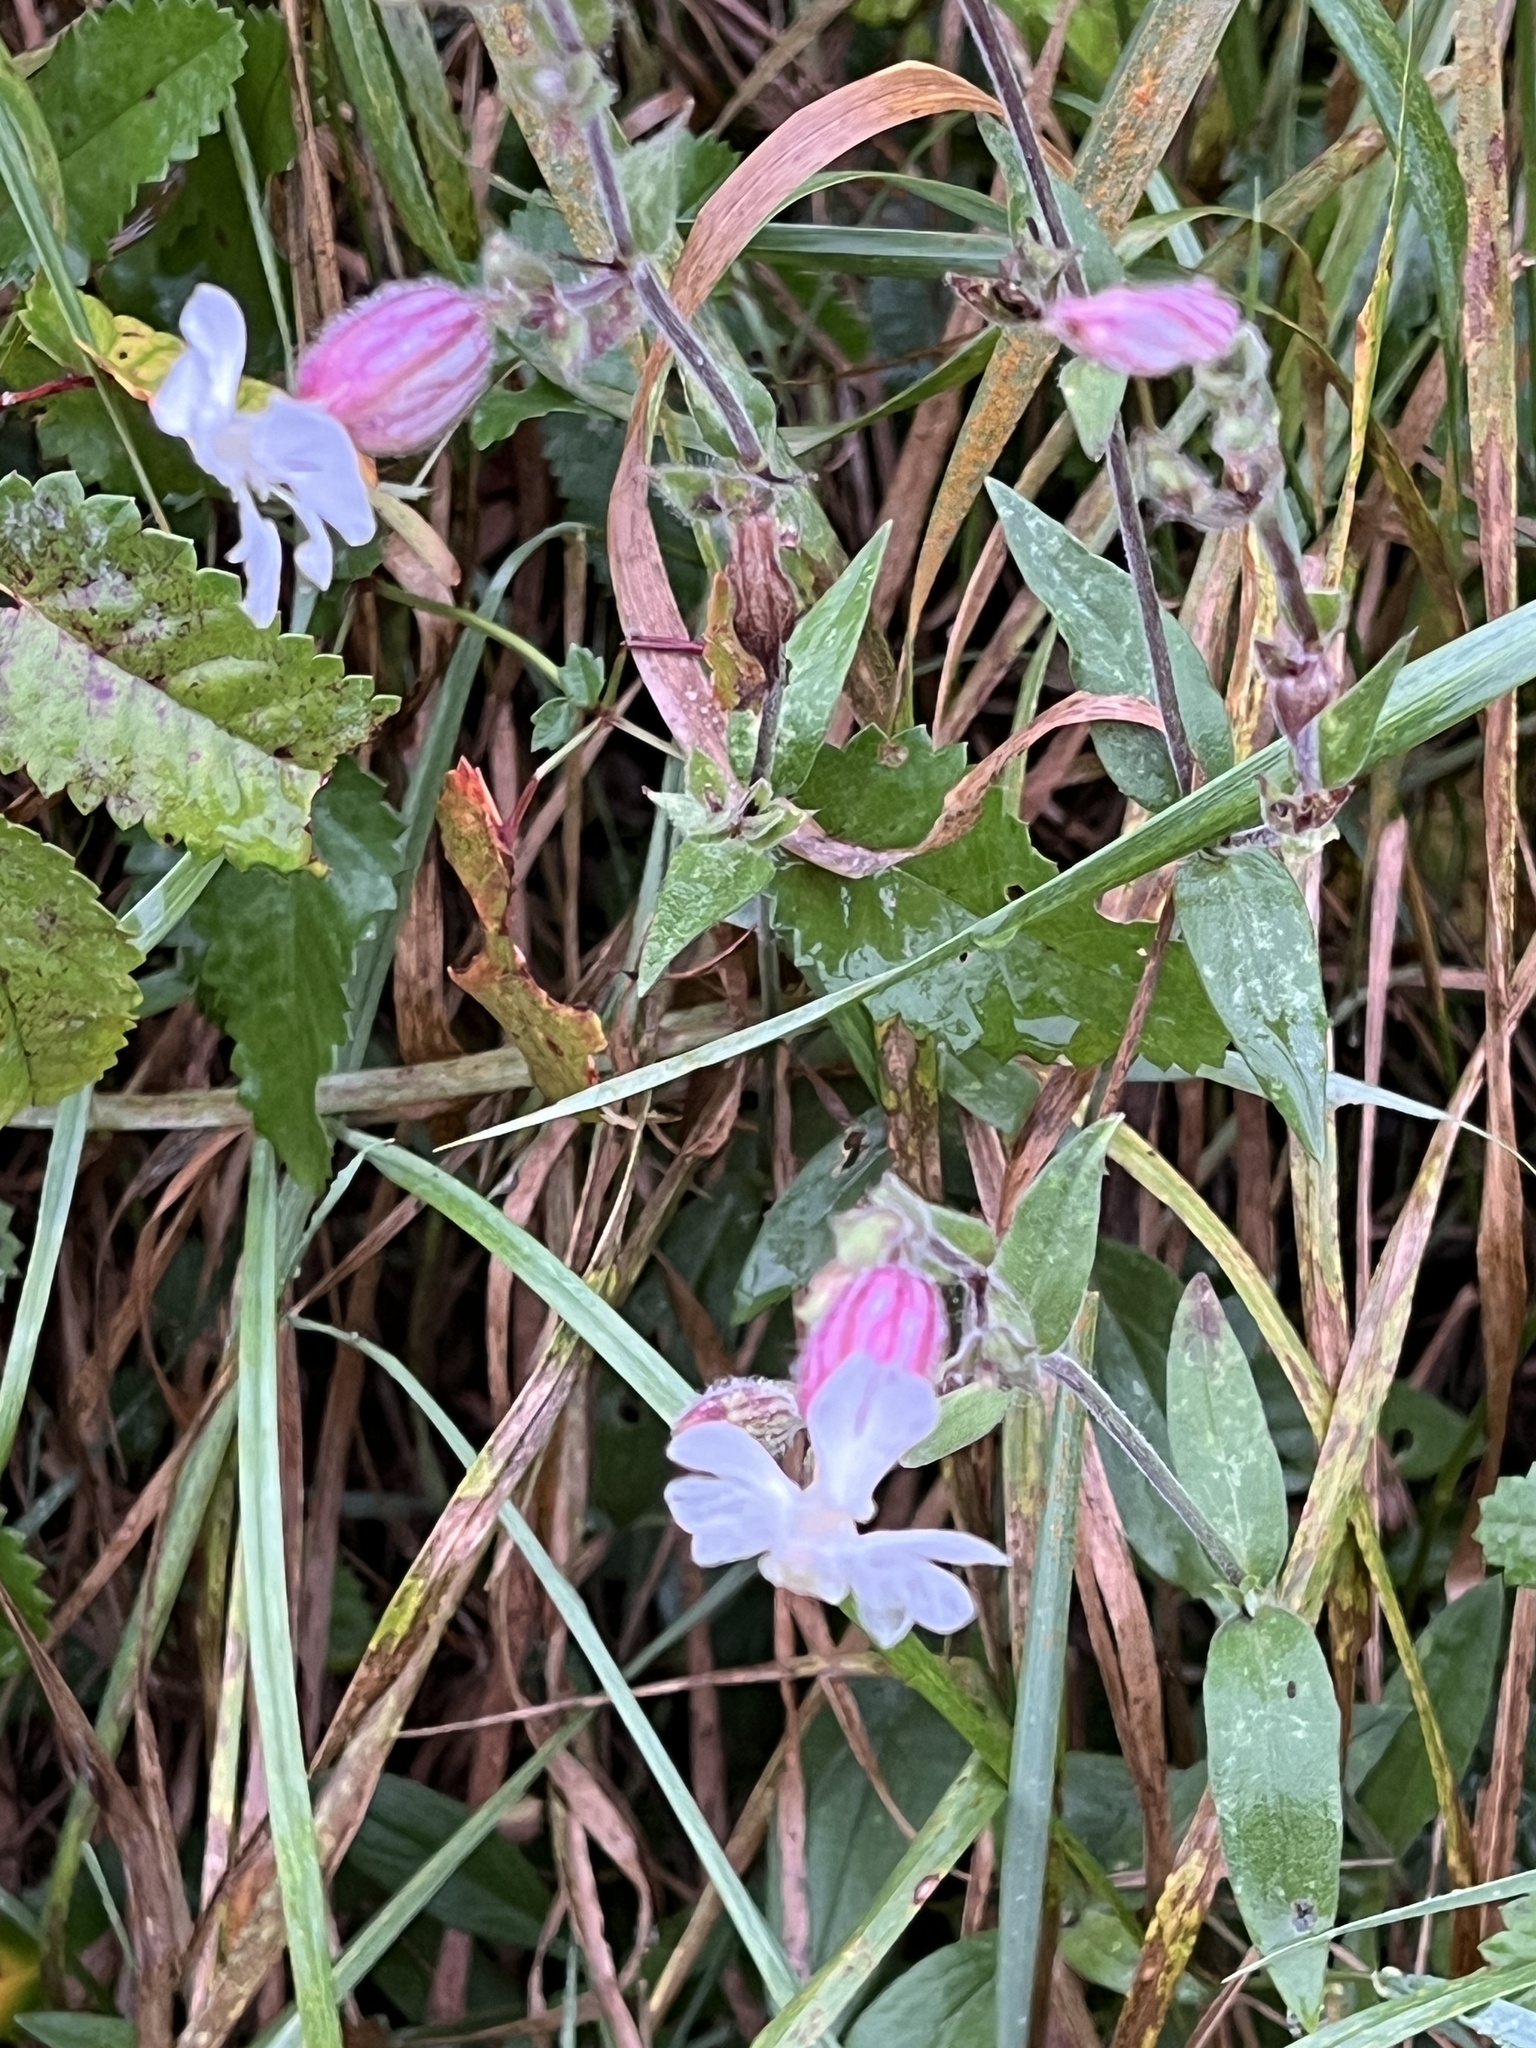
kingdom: Plantae
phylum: Tracheophyta
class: Magnoliopsida
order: Caryophyllales
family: Caryophyllaceae
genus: Silene
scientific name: Silene vulgaris
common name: Bladder campion
